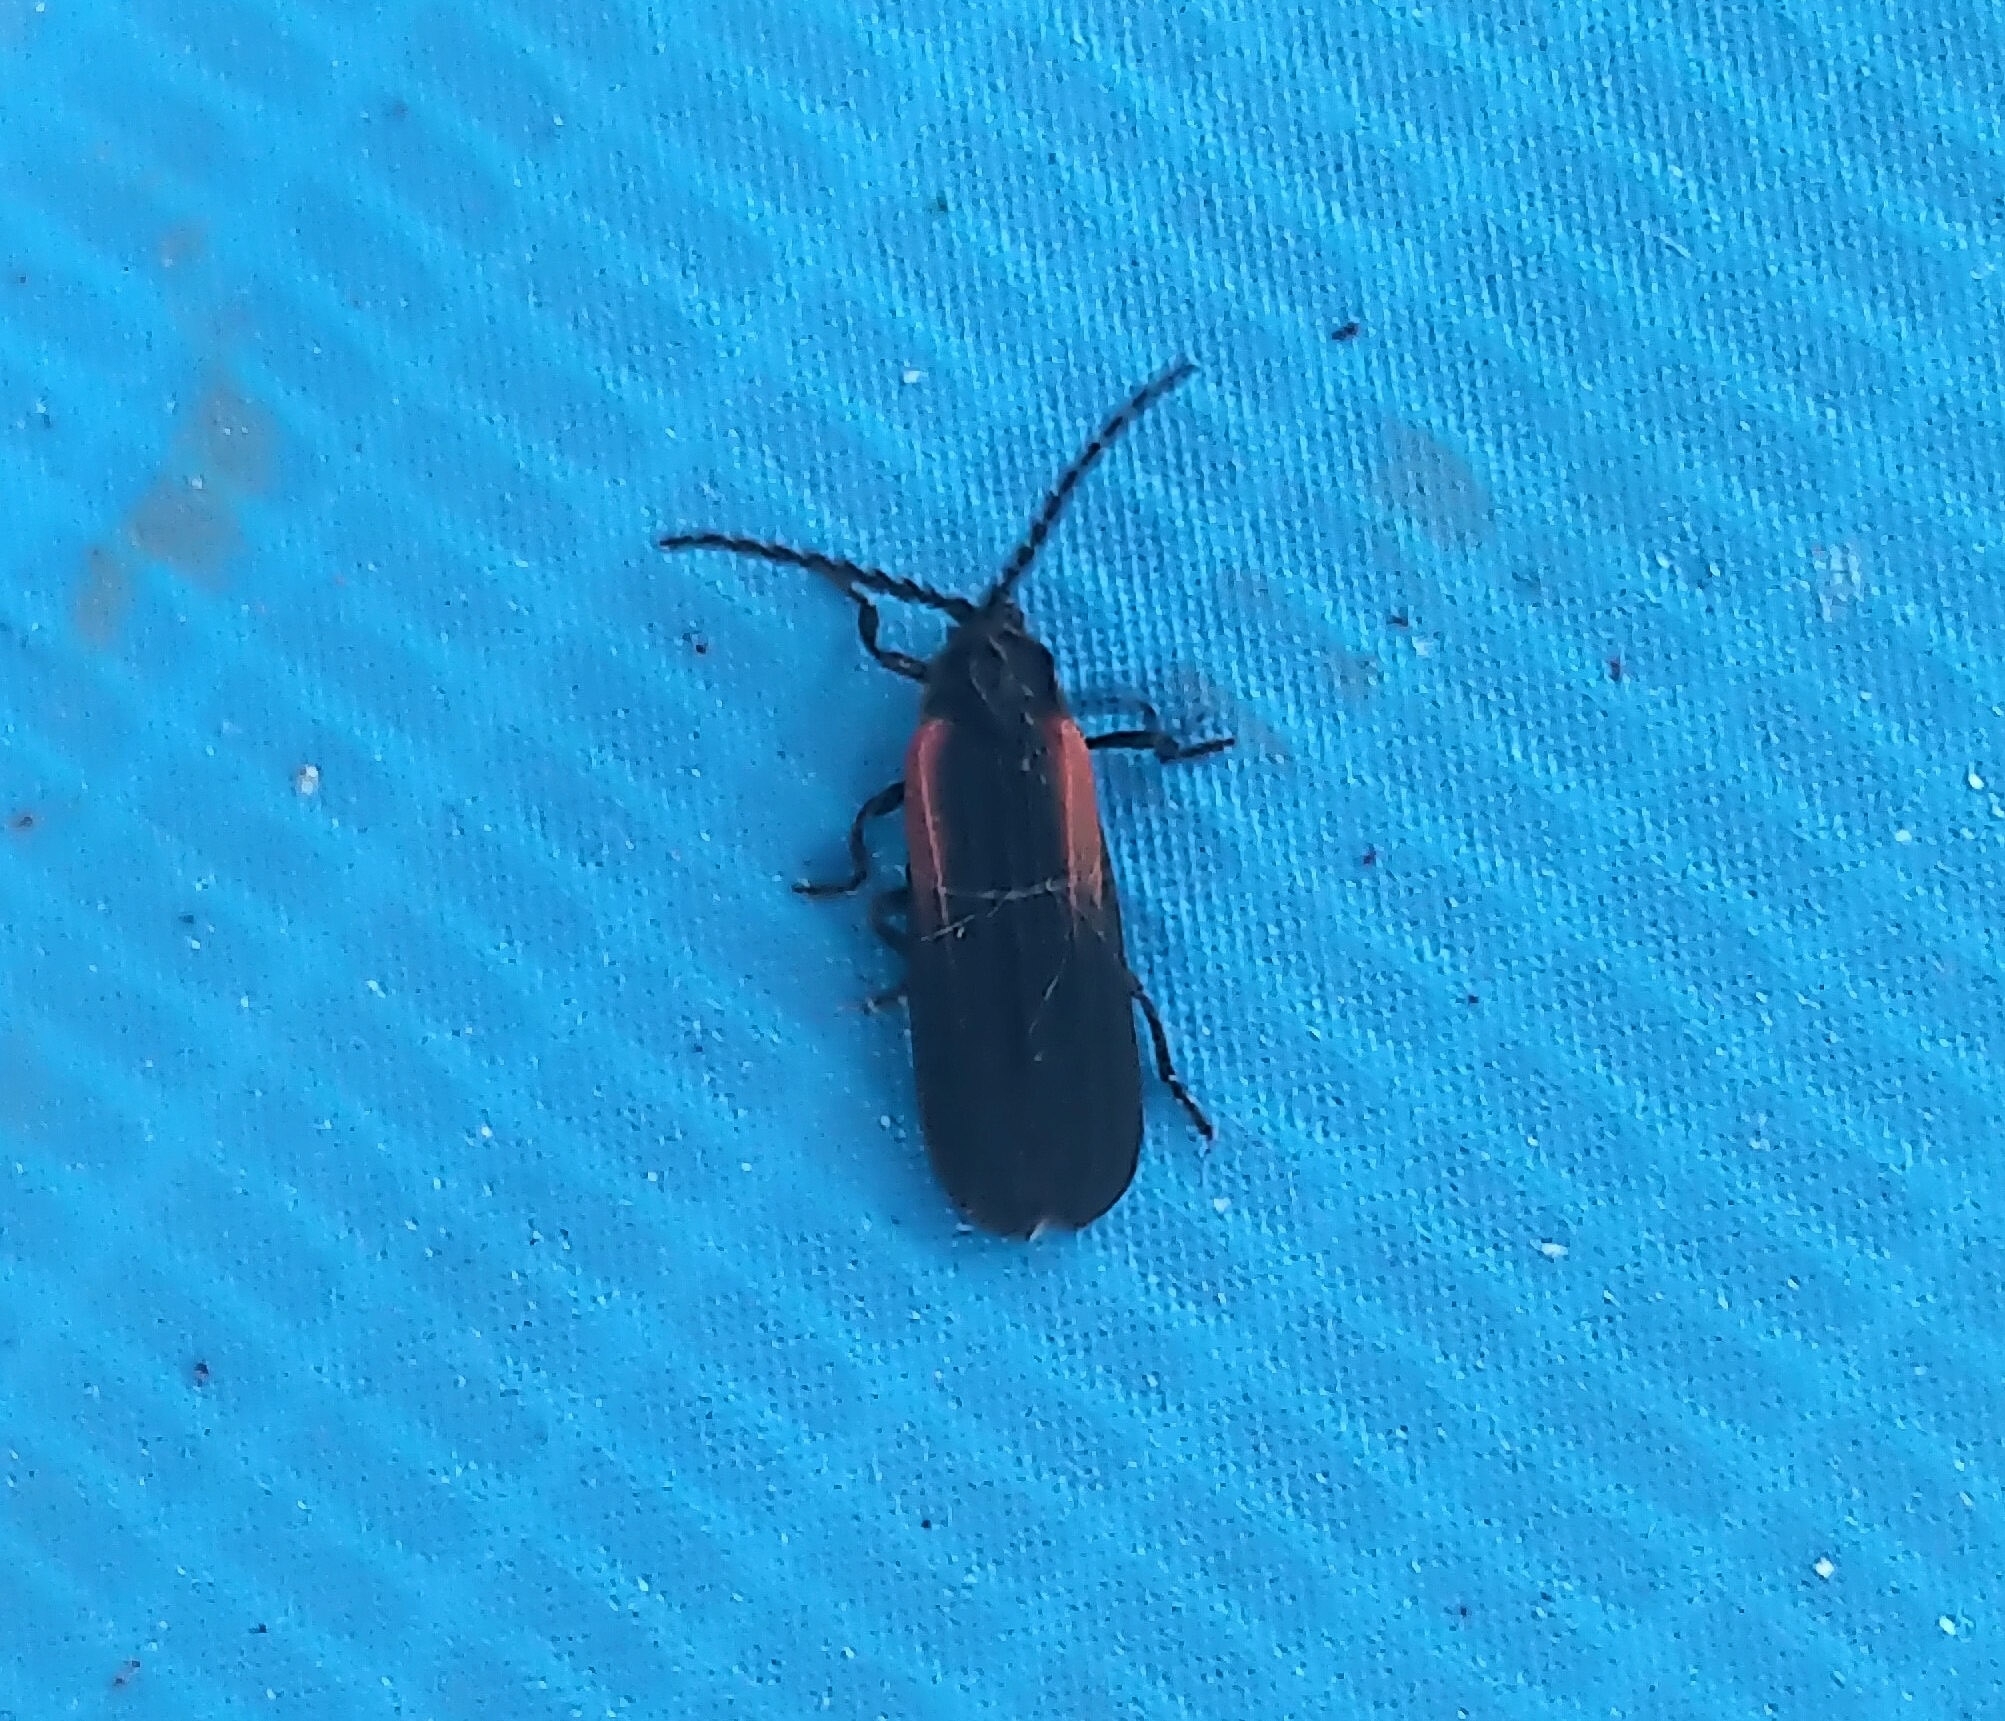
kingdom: Animalia
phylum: Arthropoda
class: Insecta
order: Coleoptera
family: Lycidae
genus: Greenarus
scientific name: Greenarus thoracicus
